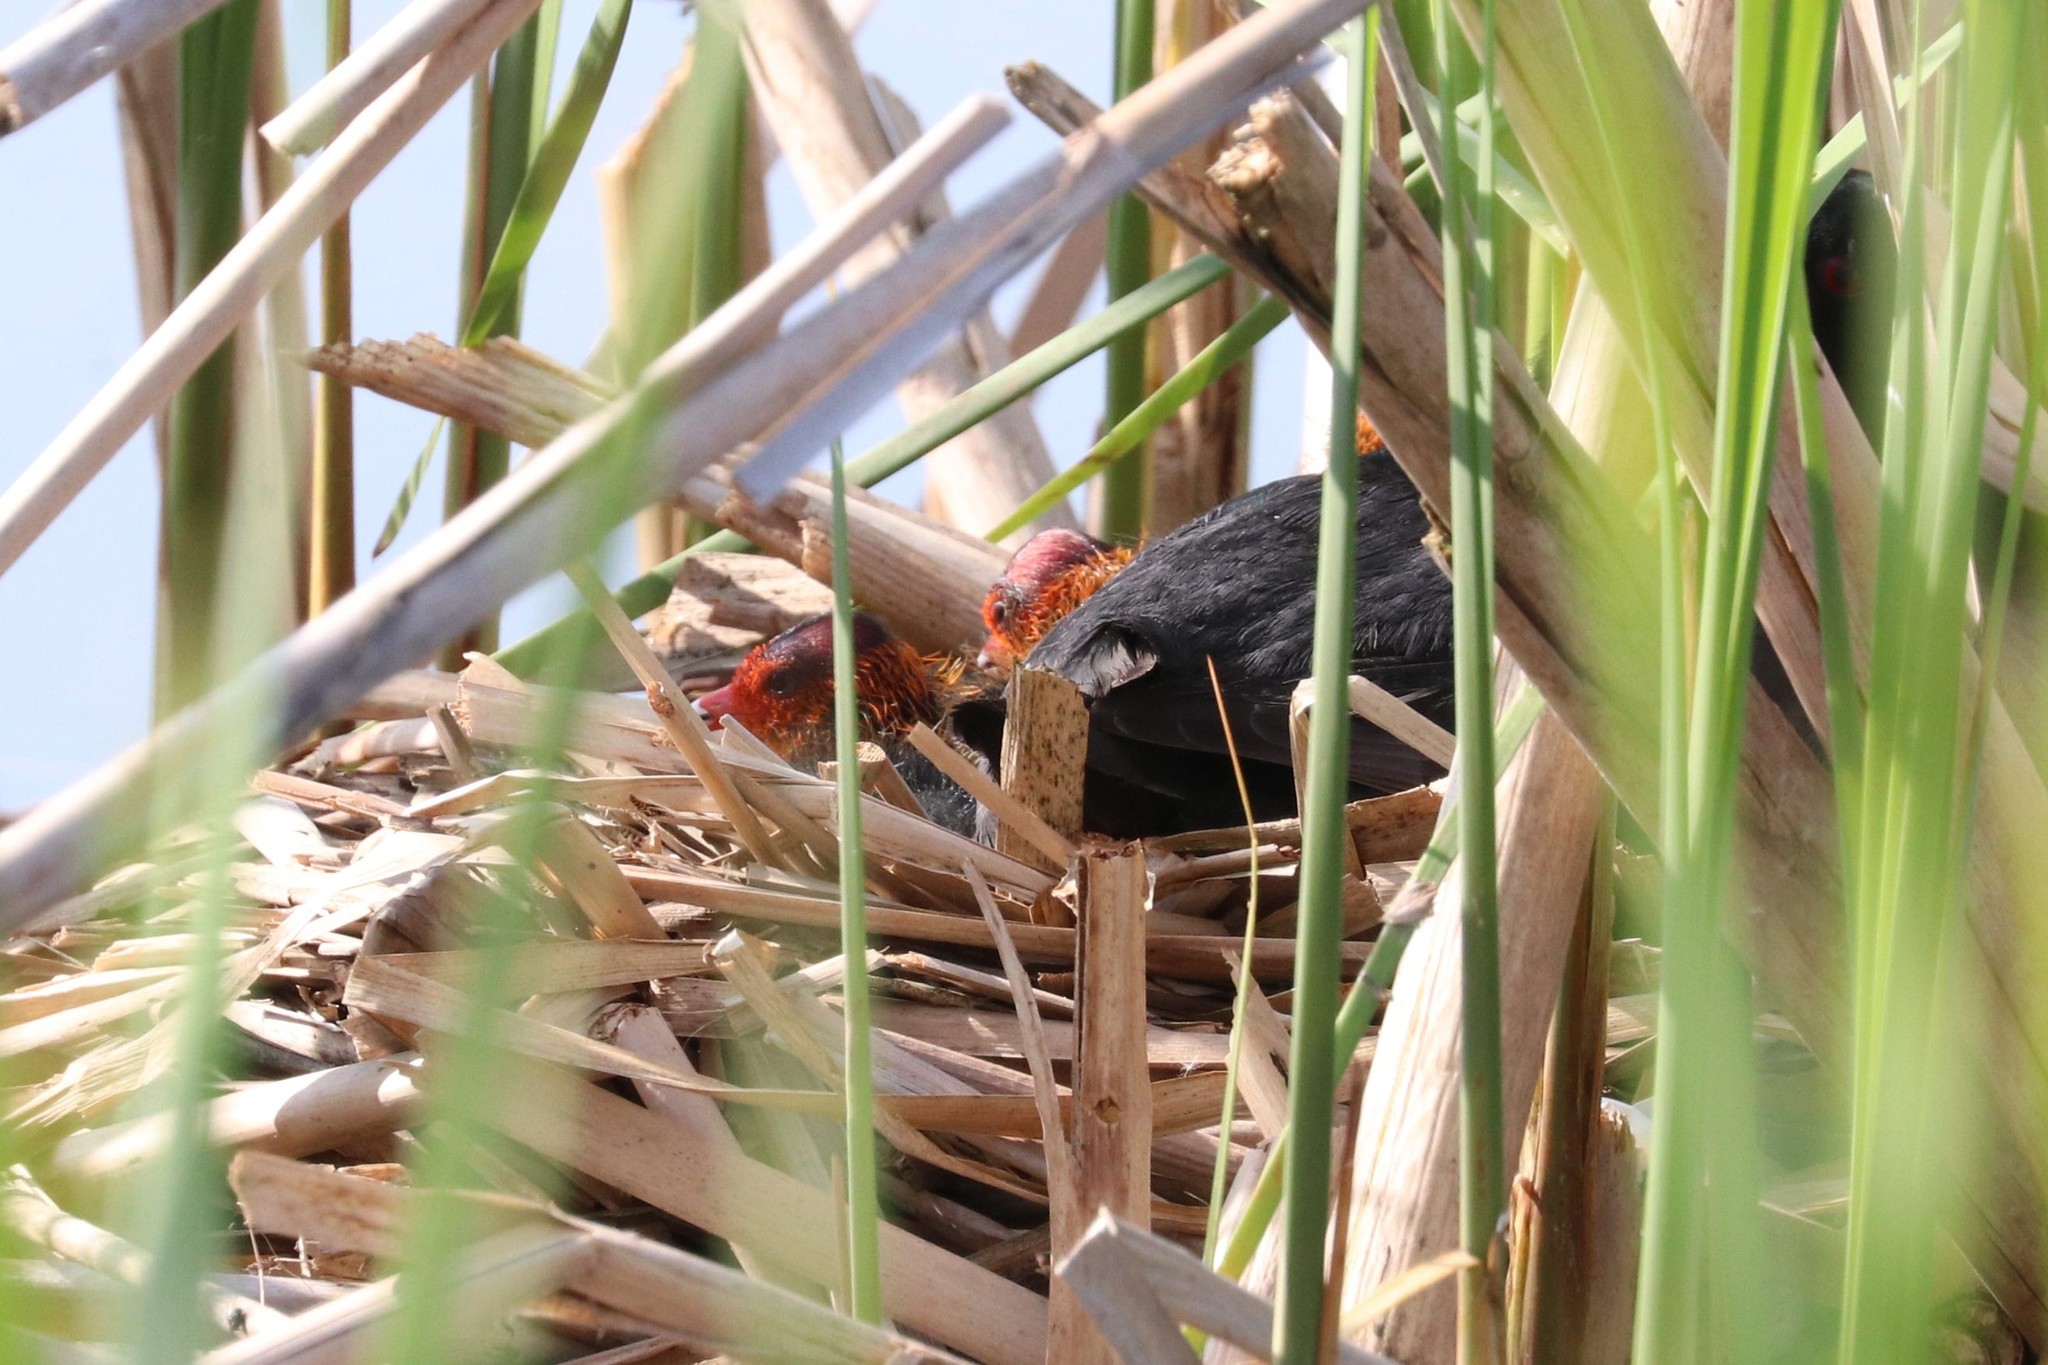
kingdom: Animalia
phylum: Chordata
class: Aves
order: Gruiformes
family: Rallidae
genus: Fulica
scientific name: Fulica atra
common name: Eurasian coot
